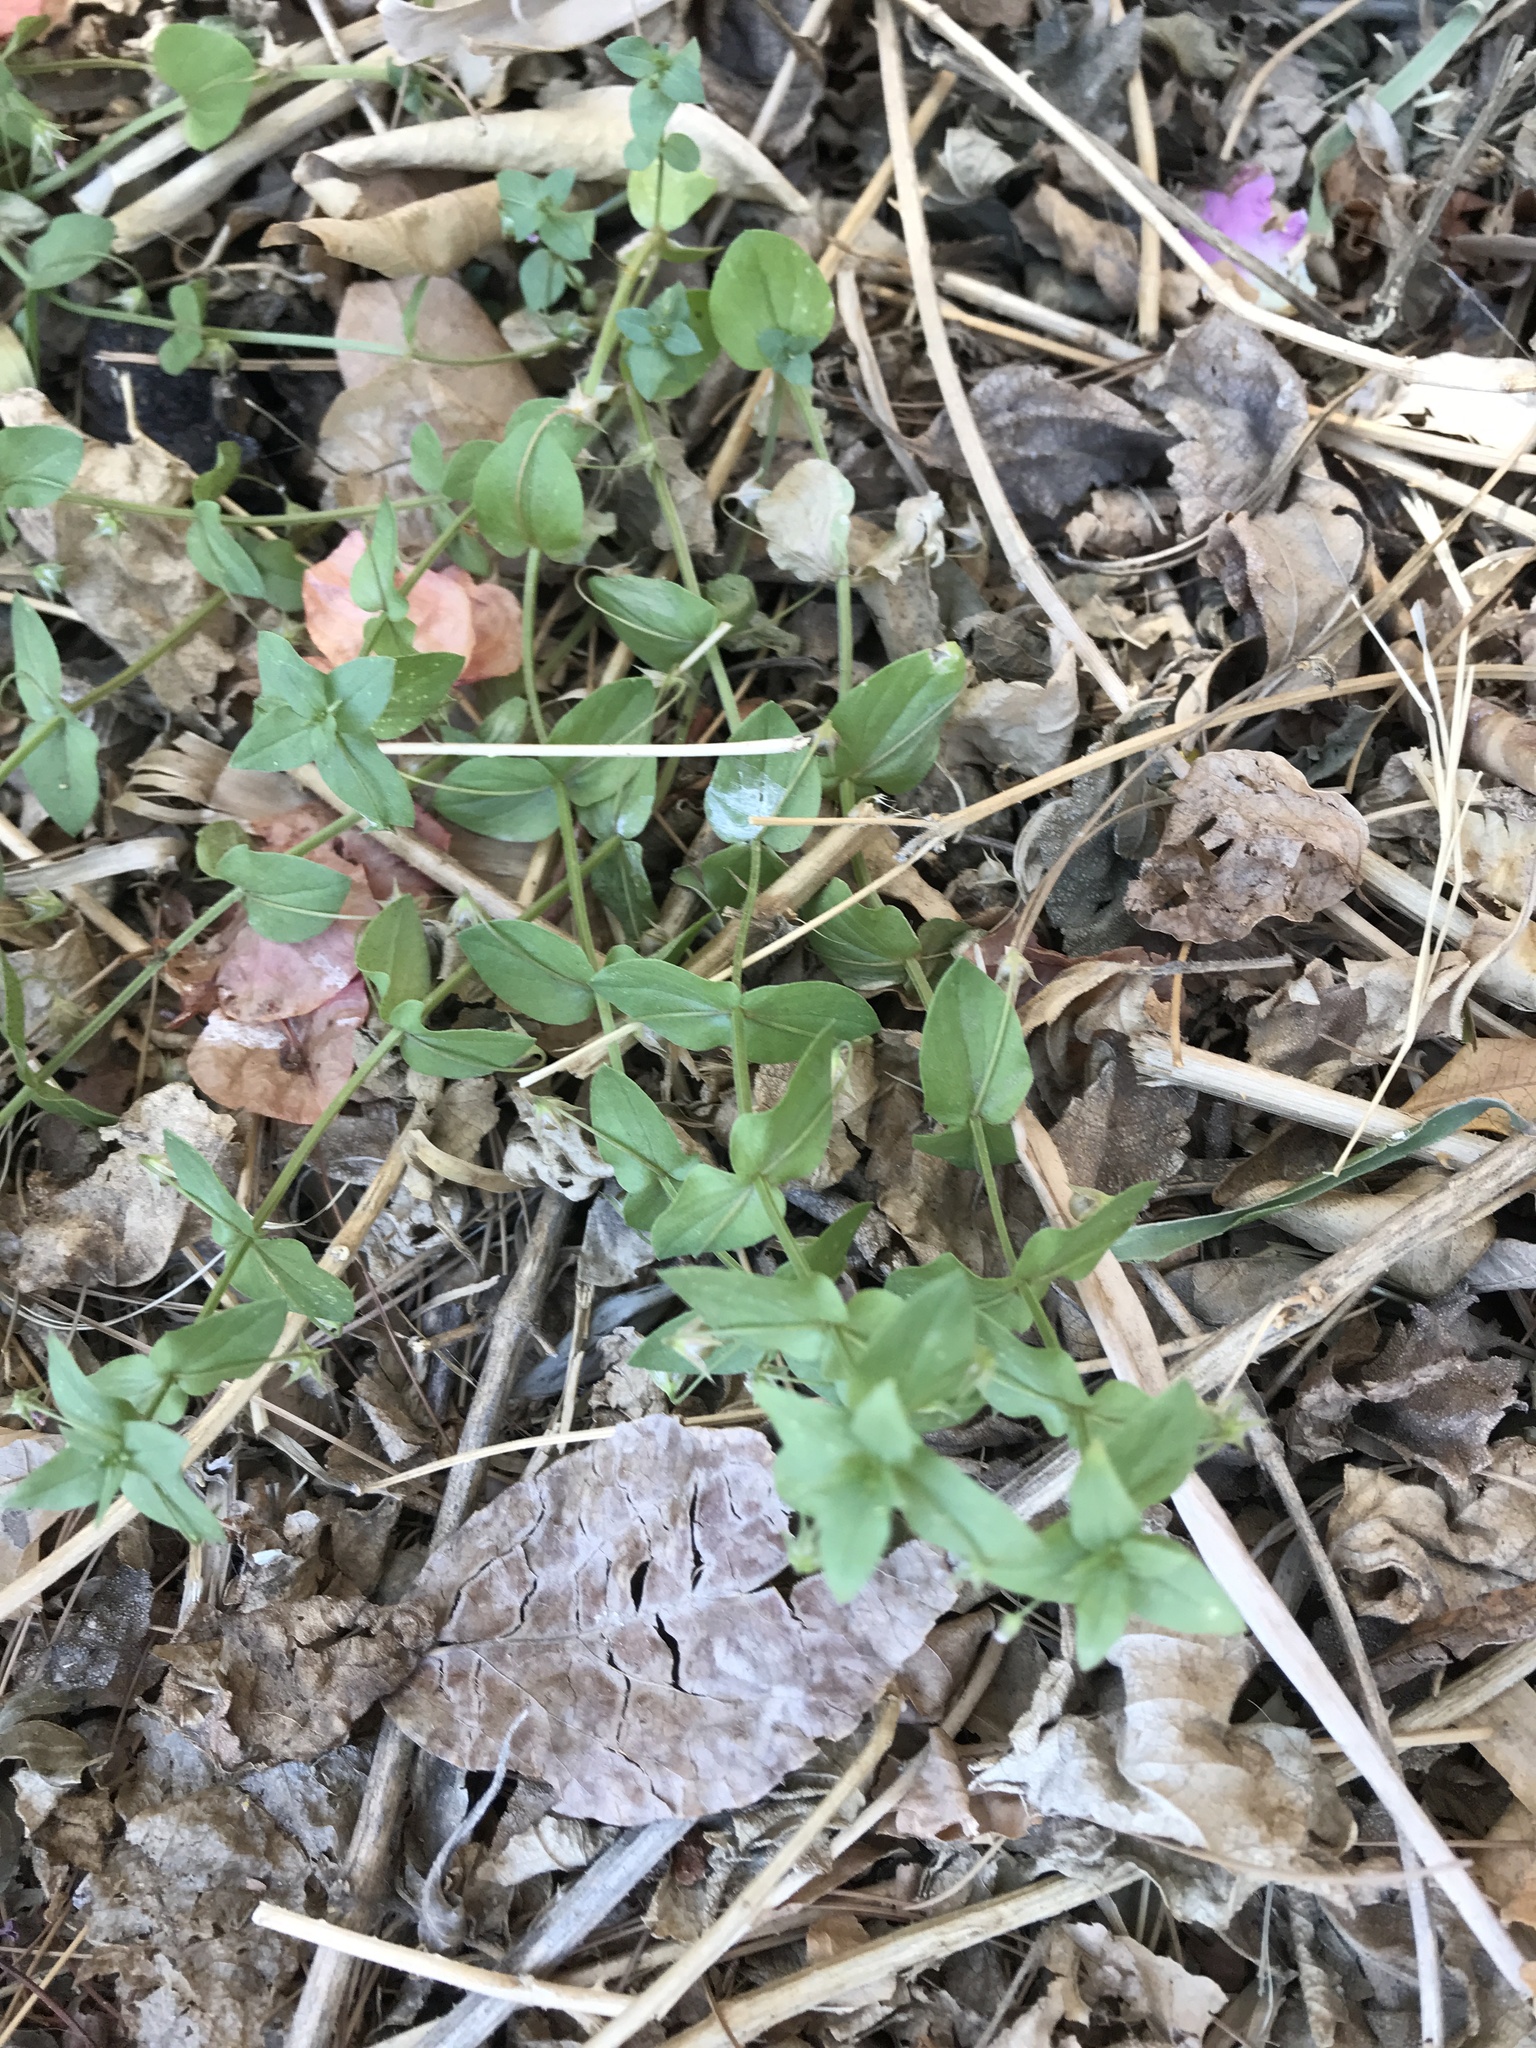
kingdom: Plantae
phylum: Tracheophyta
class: Magnoliopsida
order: Ericales
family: Primulaceae
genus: Lysimachia
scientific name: Lysimachia arvensis
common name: Scarlet pimpernel
